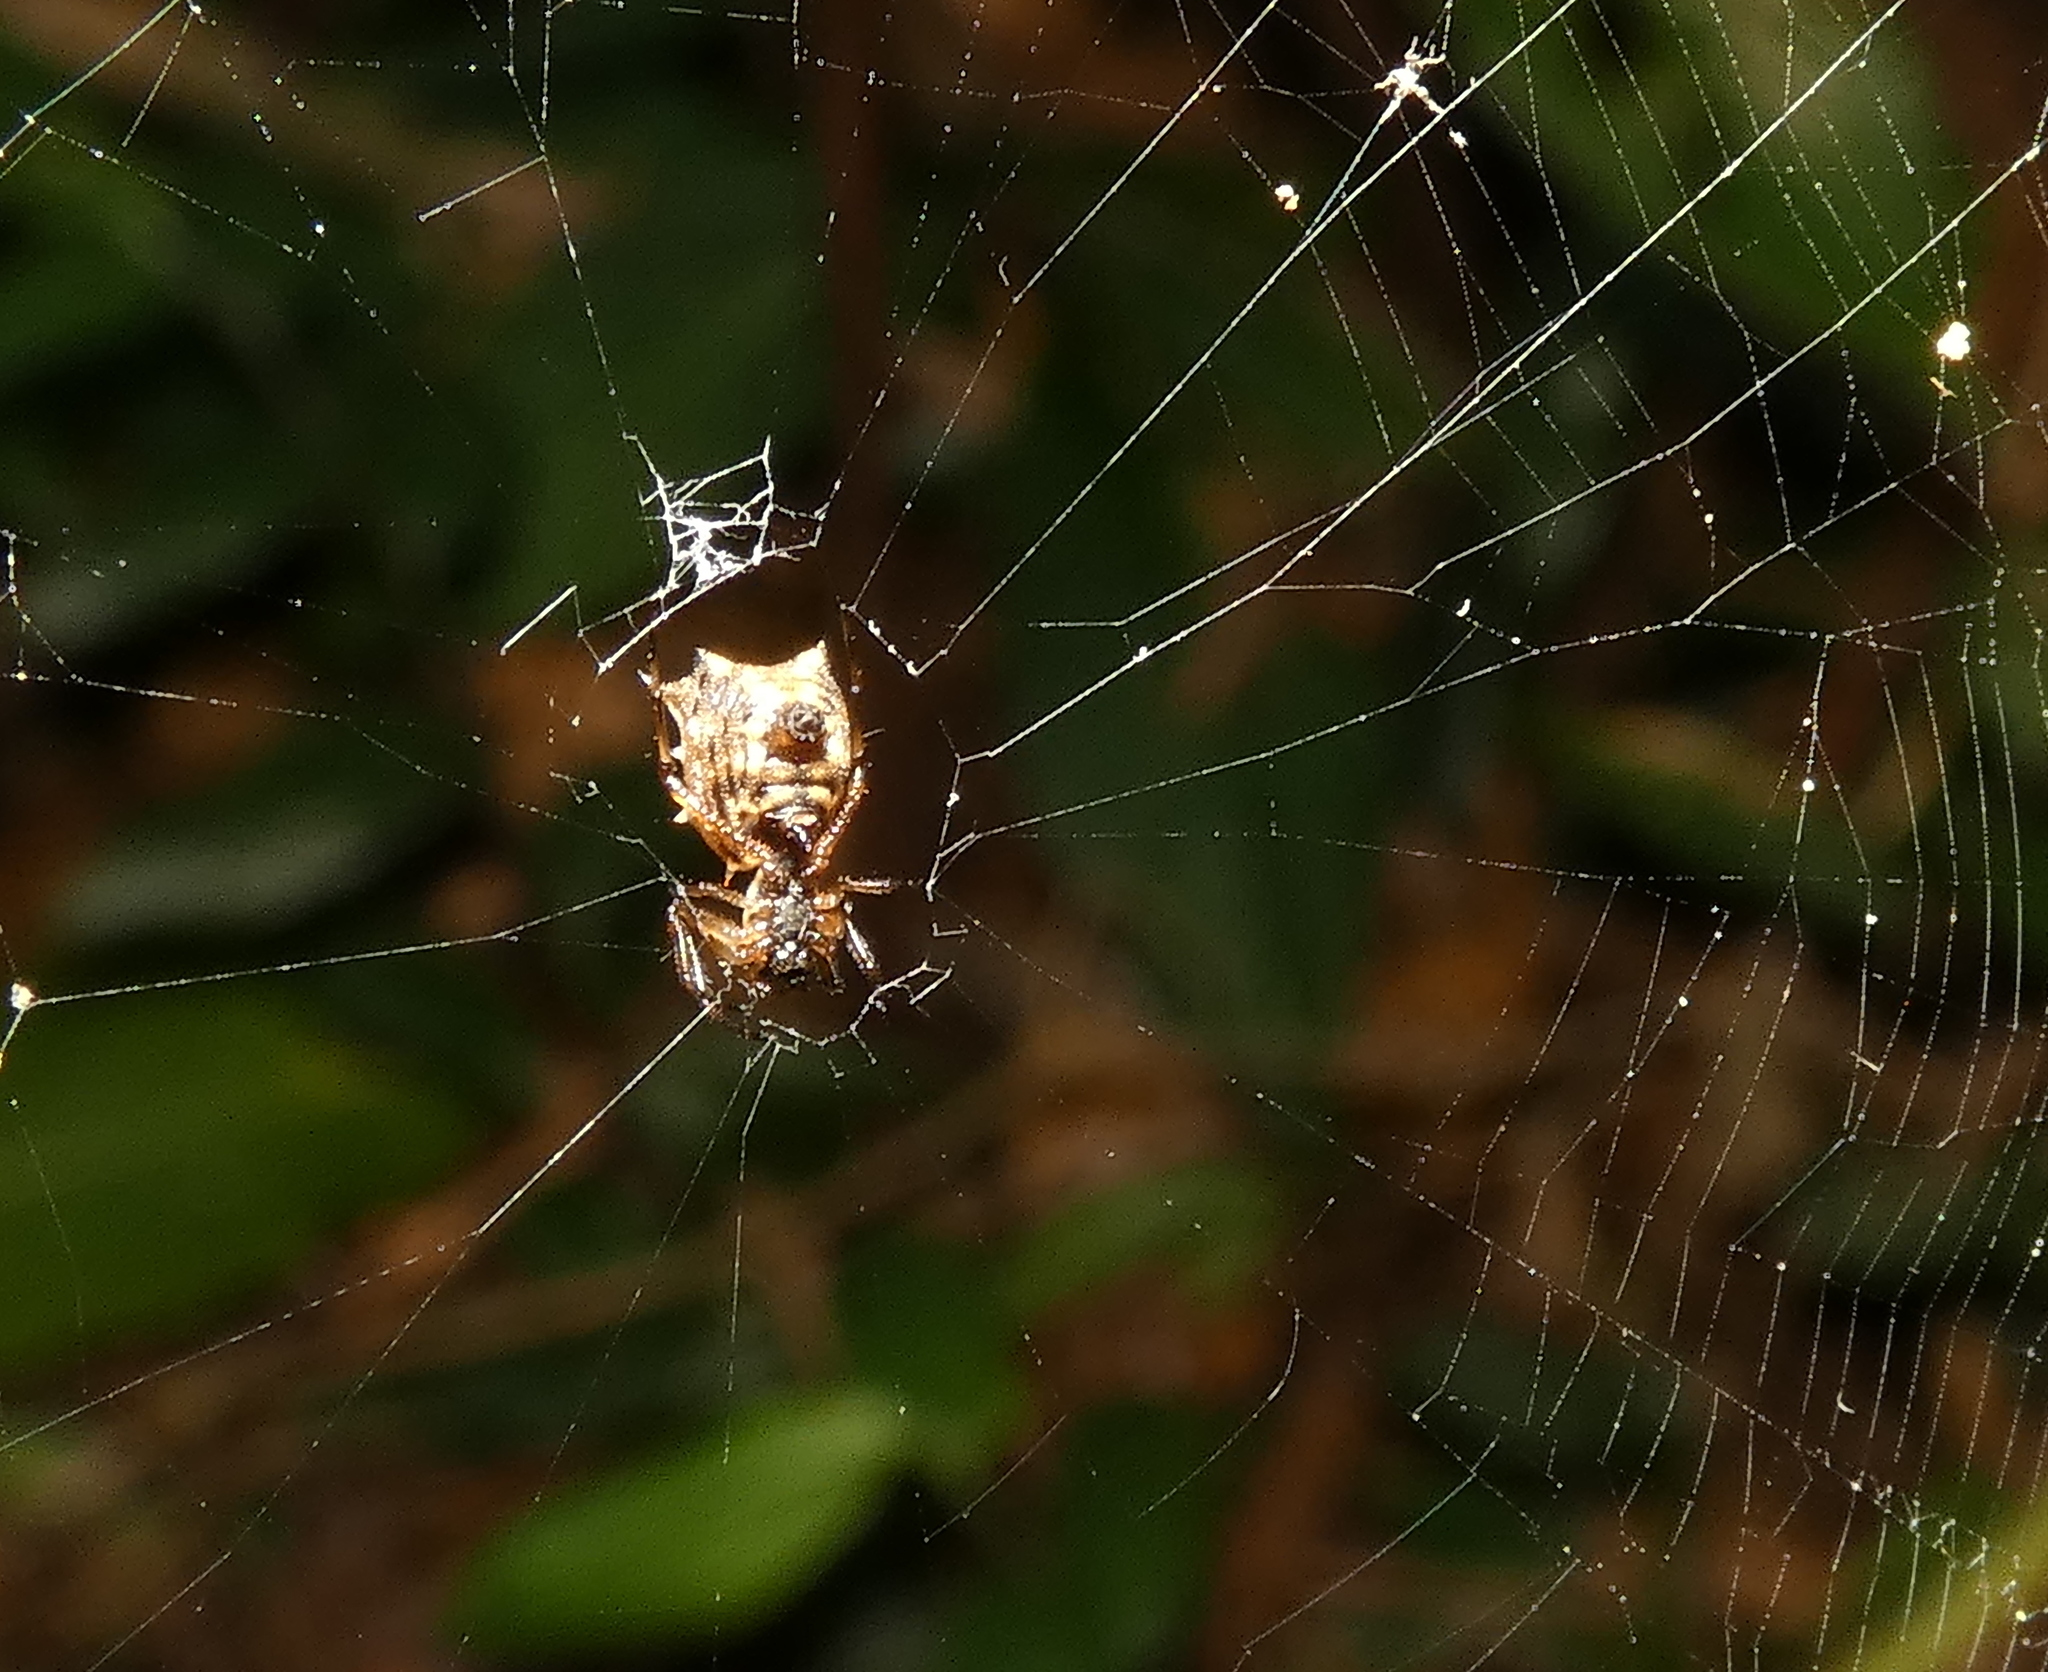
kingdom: Animalia
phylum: Arthropoda
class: Arachnida
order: Araneae
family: Araneidae
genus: Micrathena
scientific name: Micrathena picta
